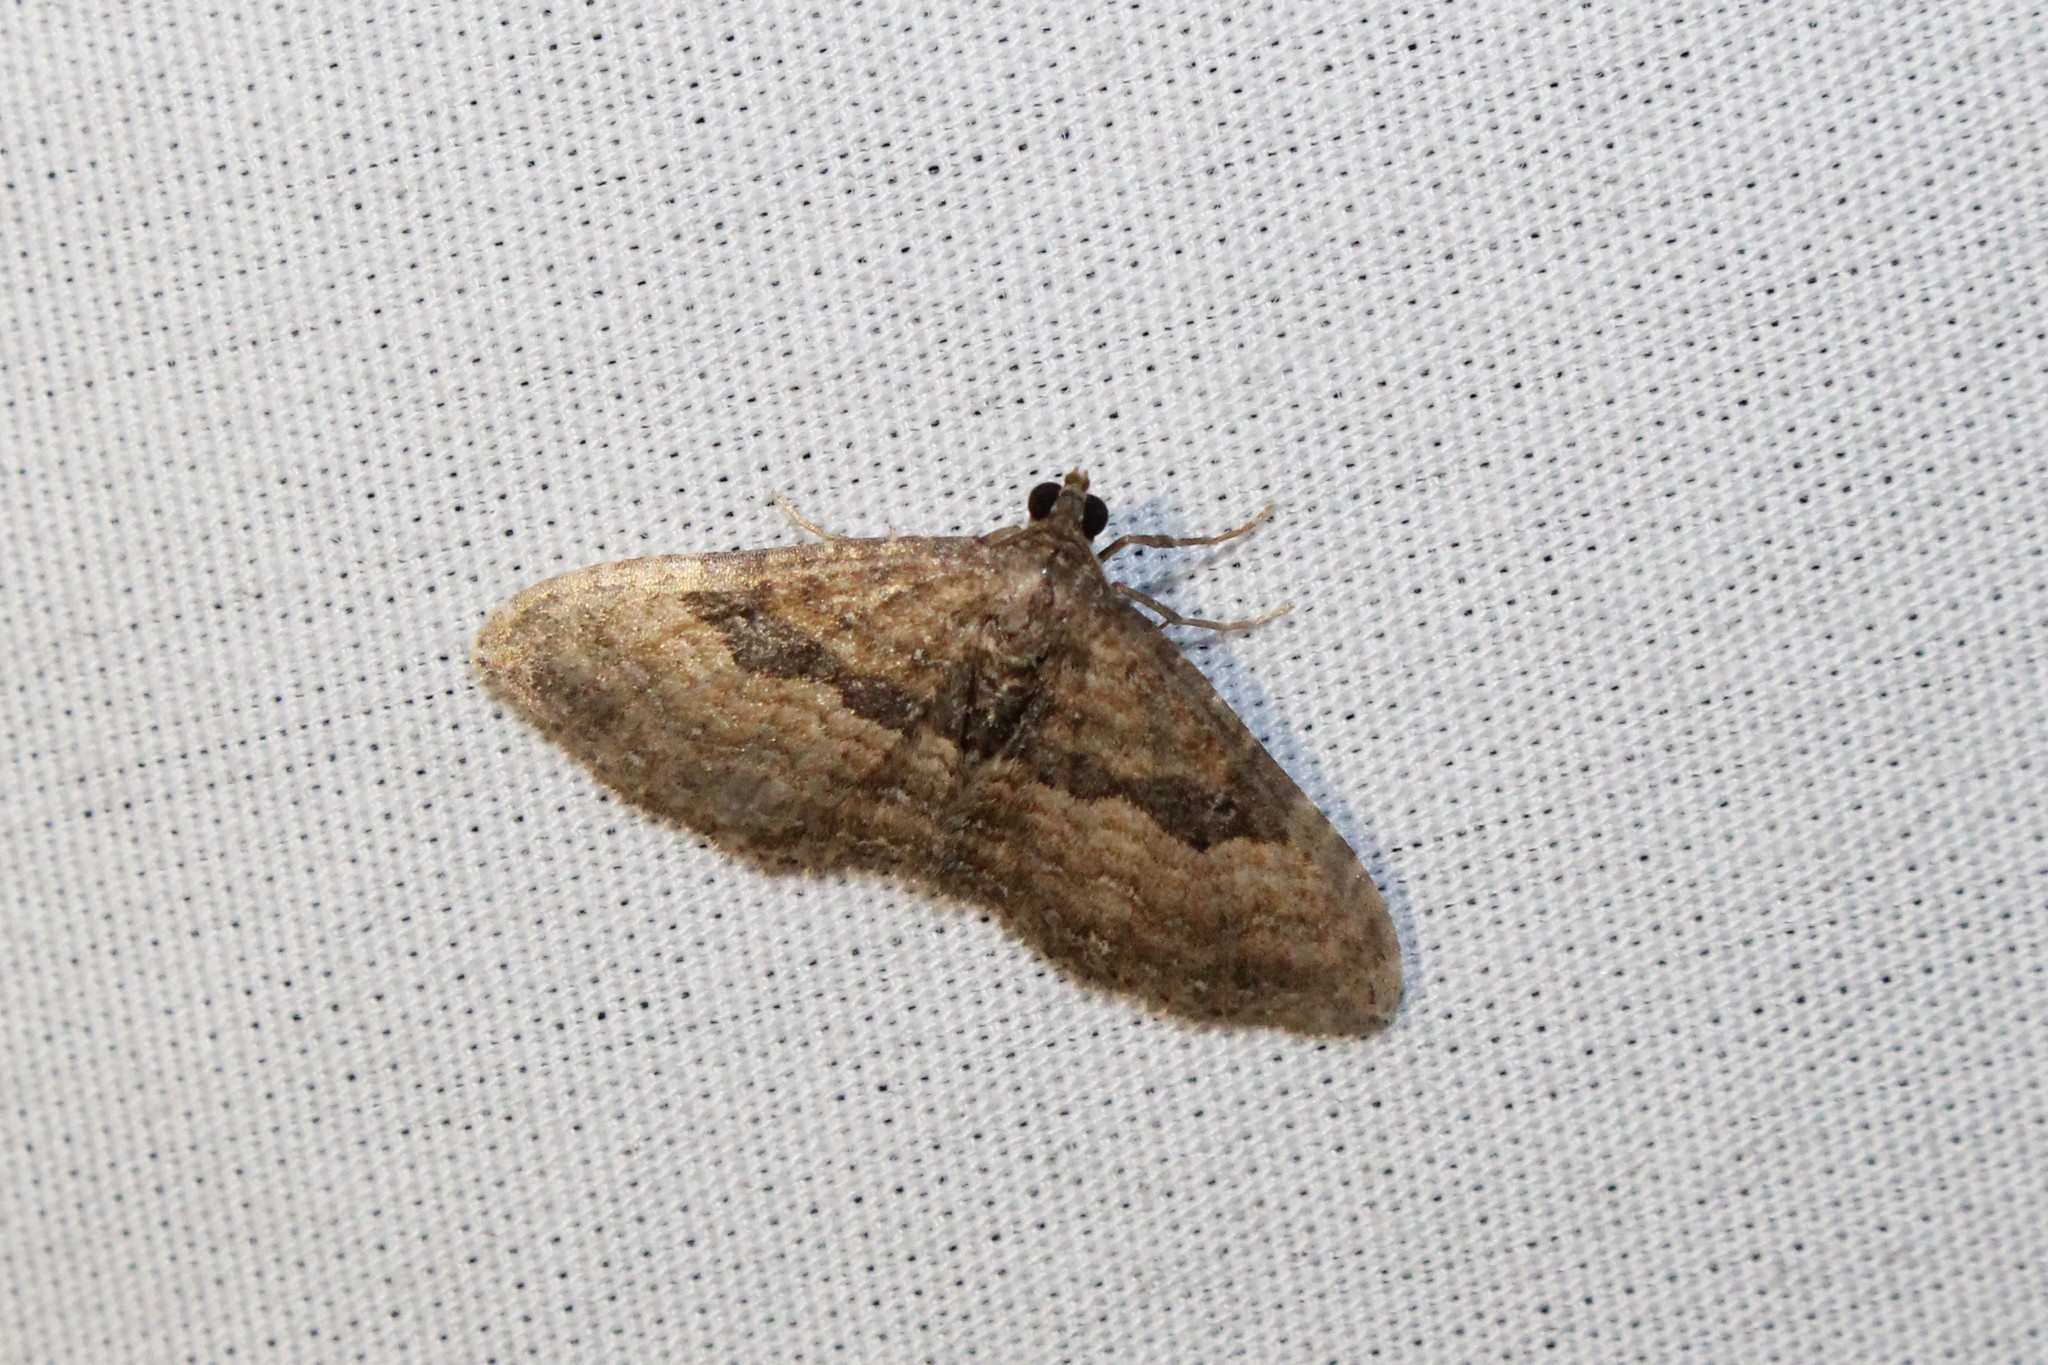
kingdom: Animalia
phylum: Arthropoda
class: Insecta
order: Lepidoptera
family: Geometridae
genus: Orthonama
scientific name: Orthonama obstipata
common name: The gem
